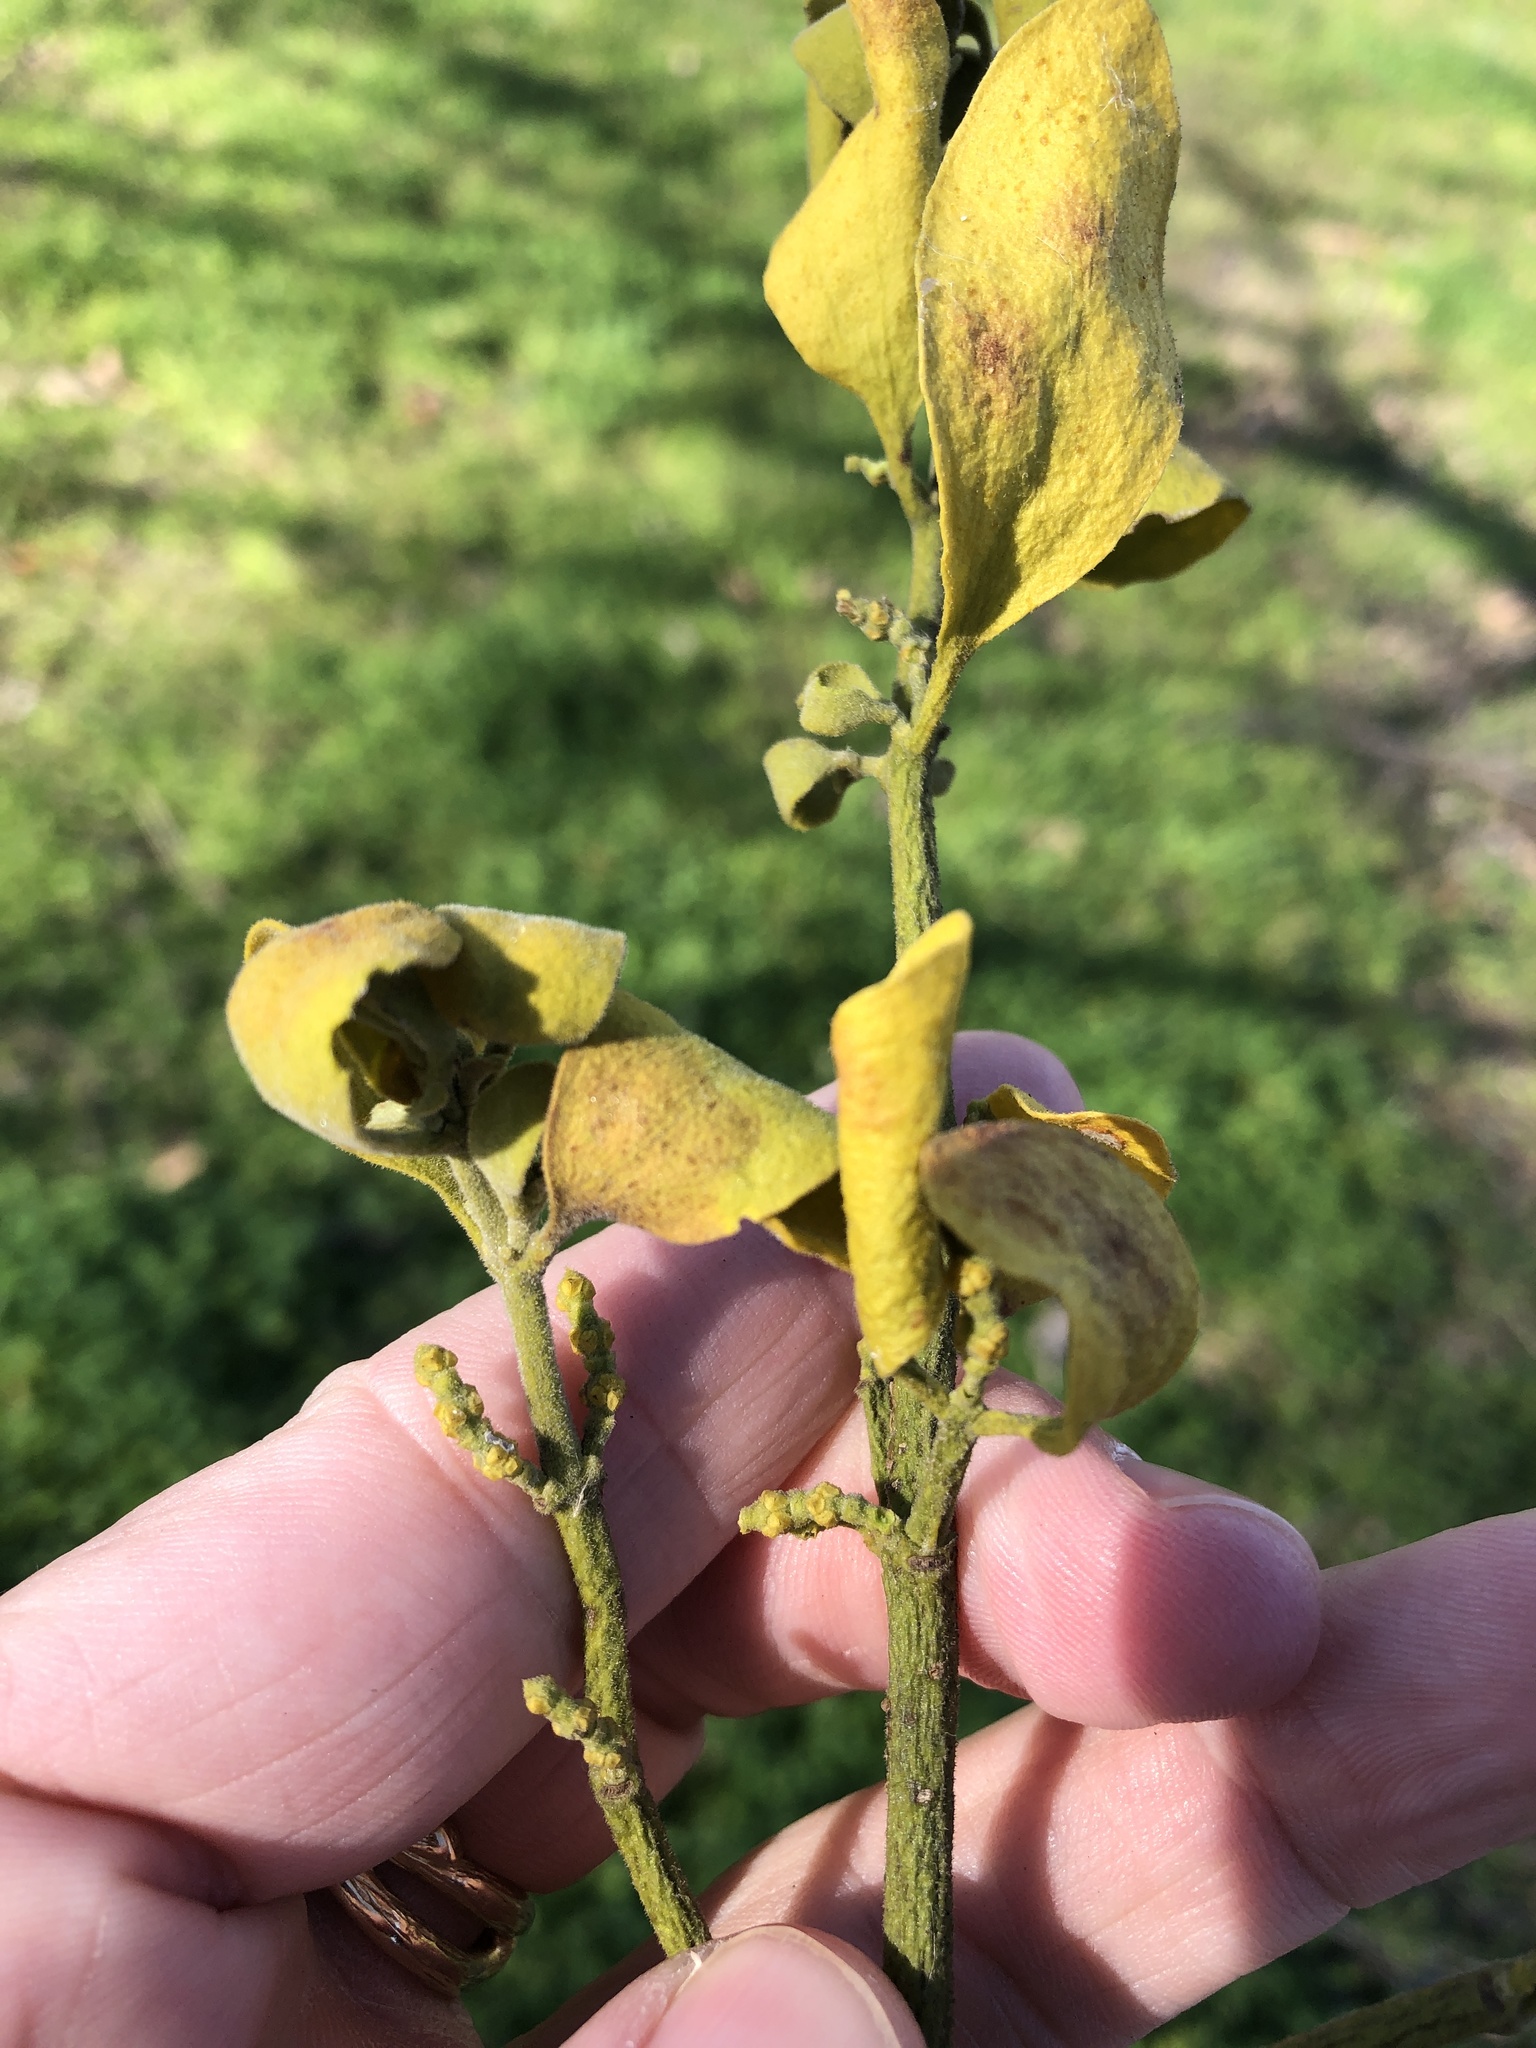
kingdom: Plantae
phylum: Tracheophyta
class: Magnoliopsida
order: Santalales
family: Viscaceae
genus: Phoradendron
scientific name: Phoradendron leucarpum
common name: Pacific mistletoe
